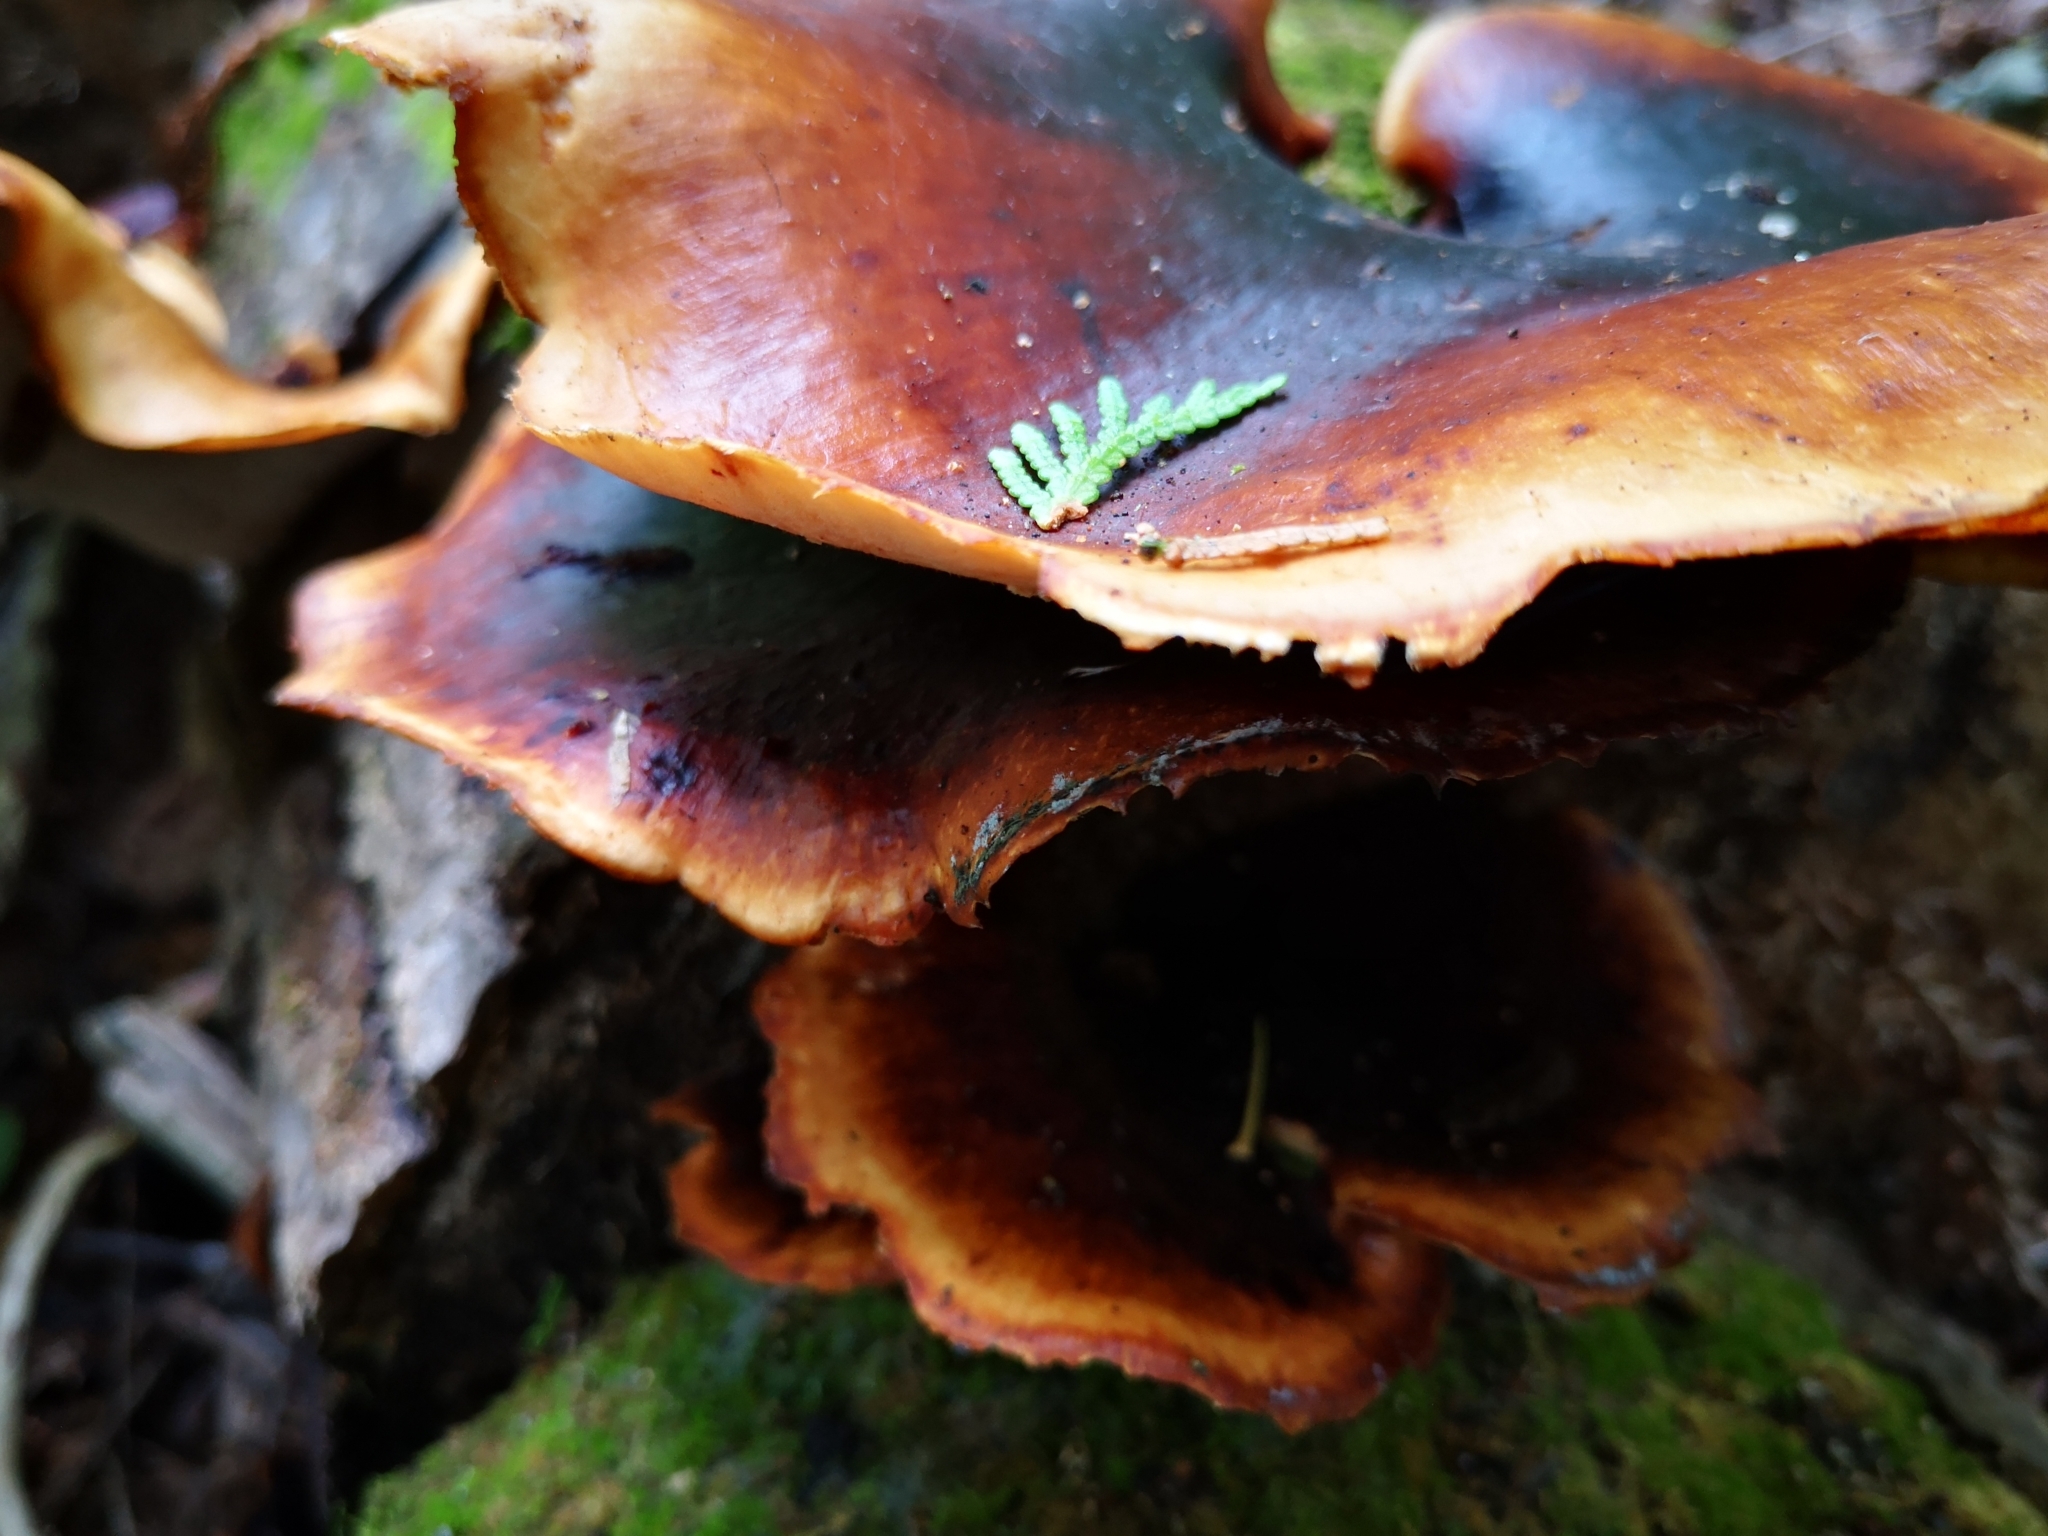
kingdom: Fungi
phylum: Basidiomycota
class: Agaricomycetes
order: Polyporales
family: Polyporaceae
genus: Picipes
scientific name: Picipes badius
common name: Bay polypore
